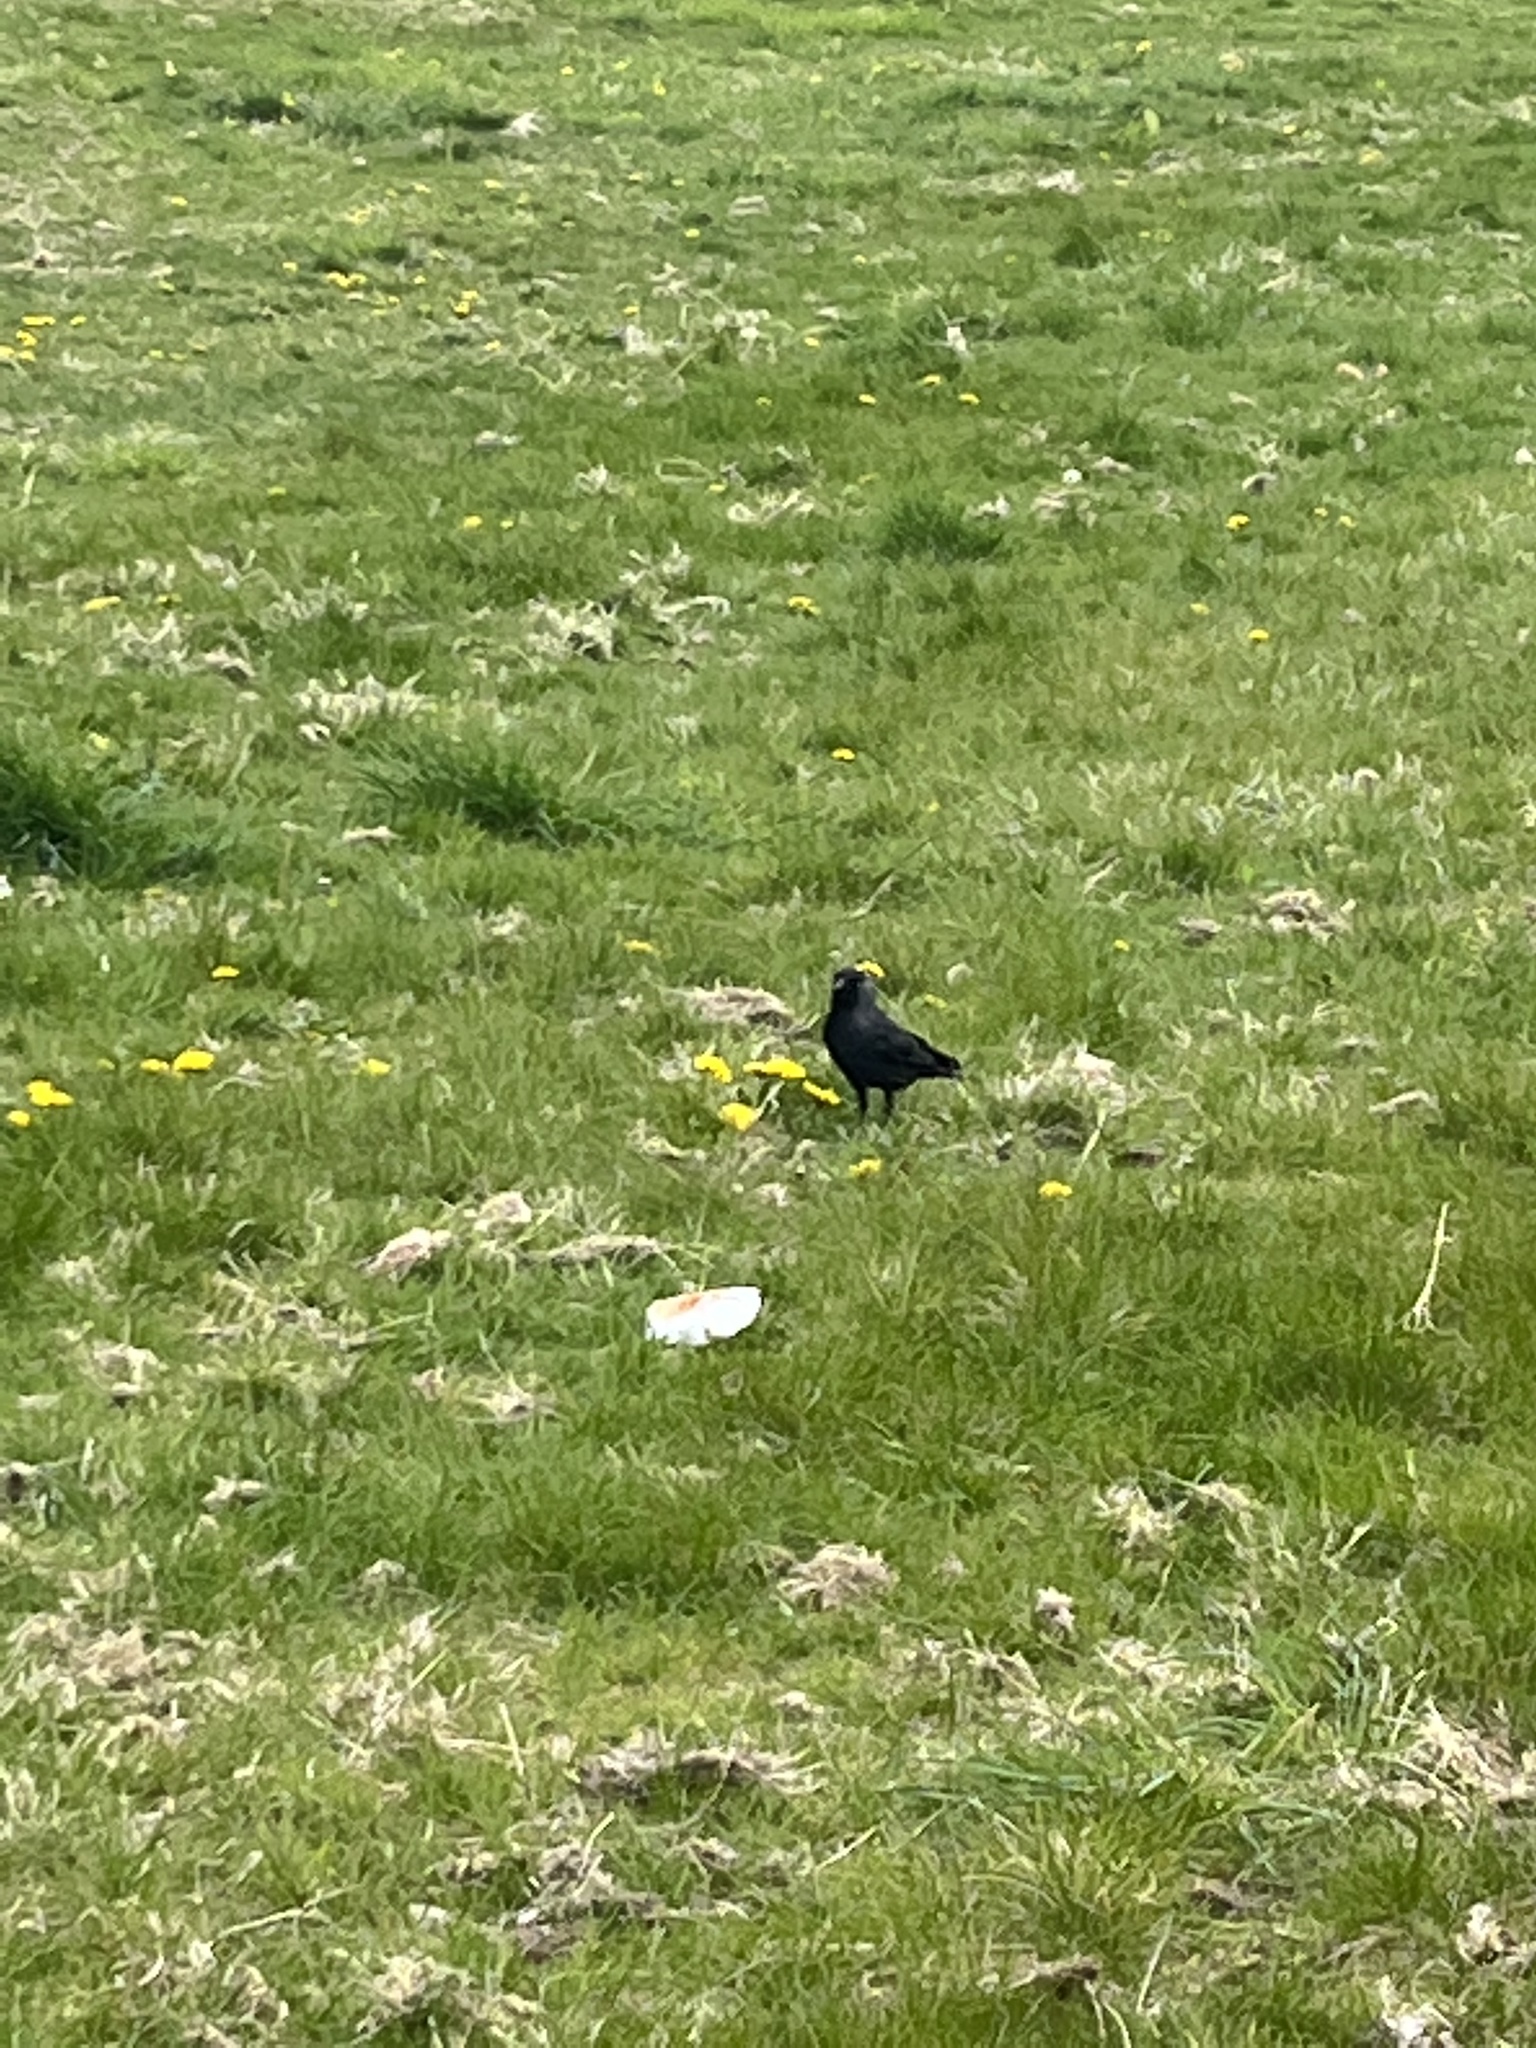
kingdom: Animalia
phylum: Chordata
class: Aves
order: Passeriformes
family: Corvidae
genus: Coloeus
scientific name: Coloeus monedula
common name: Western jackdaw
